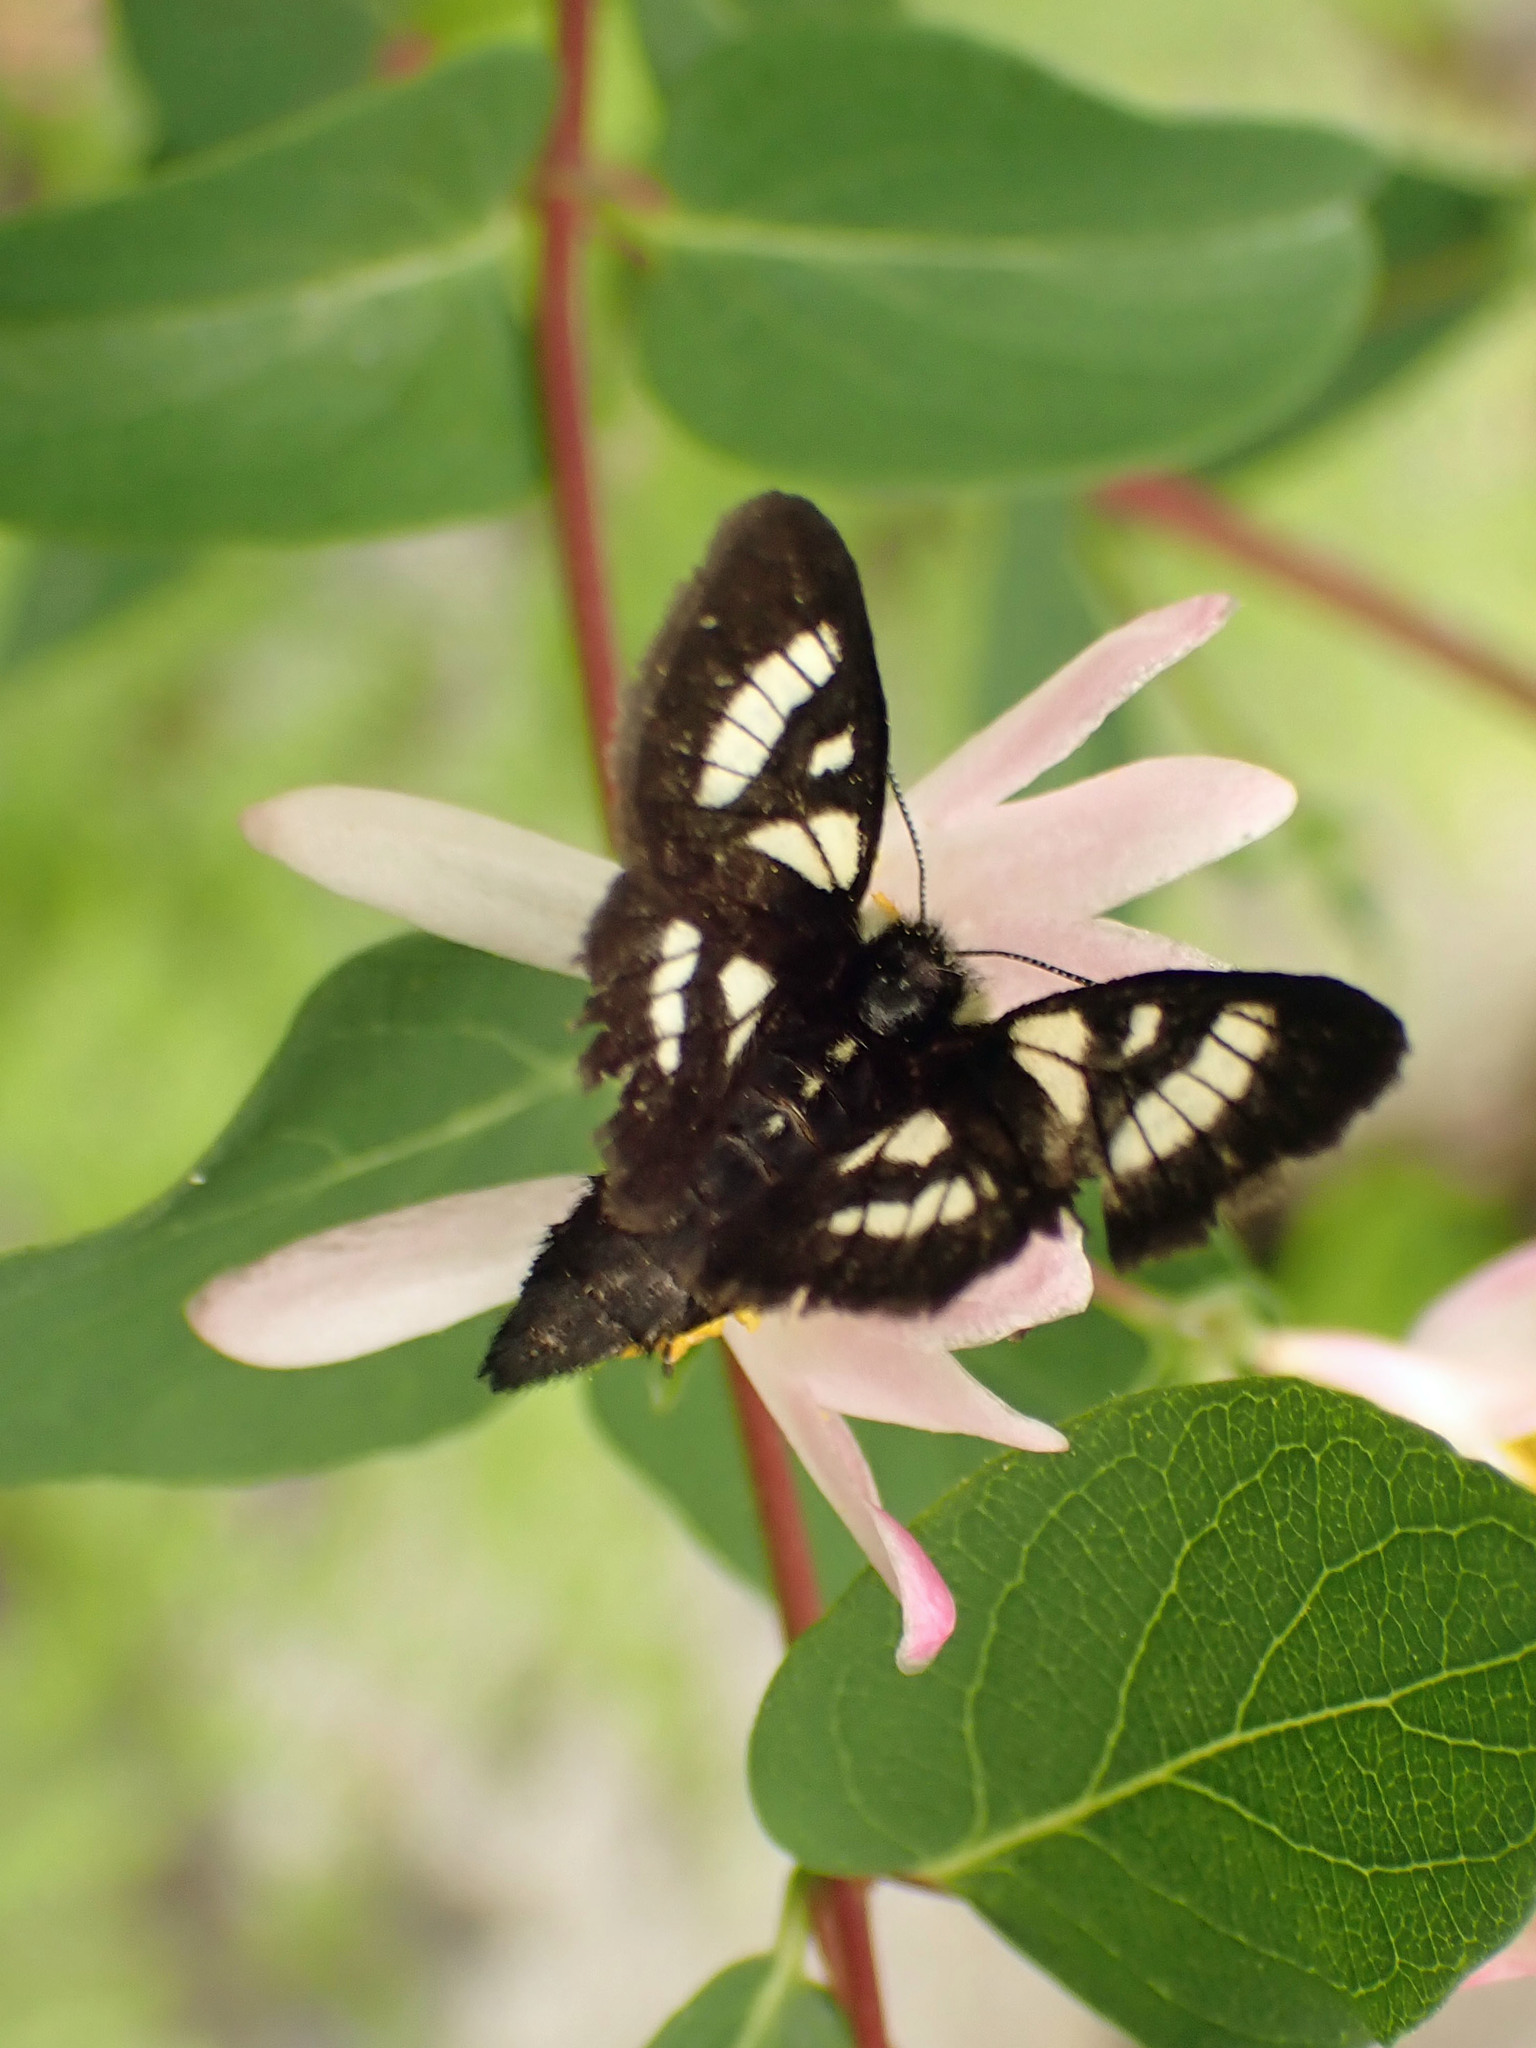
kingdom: Animalia
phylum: Arthropoda
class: Insecta
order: Lepidoptera
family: Noctuidae
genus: Alypia
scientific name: Alypia maccullochii
